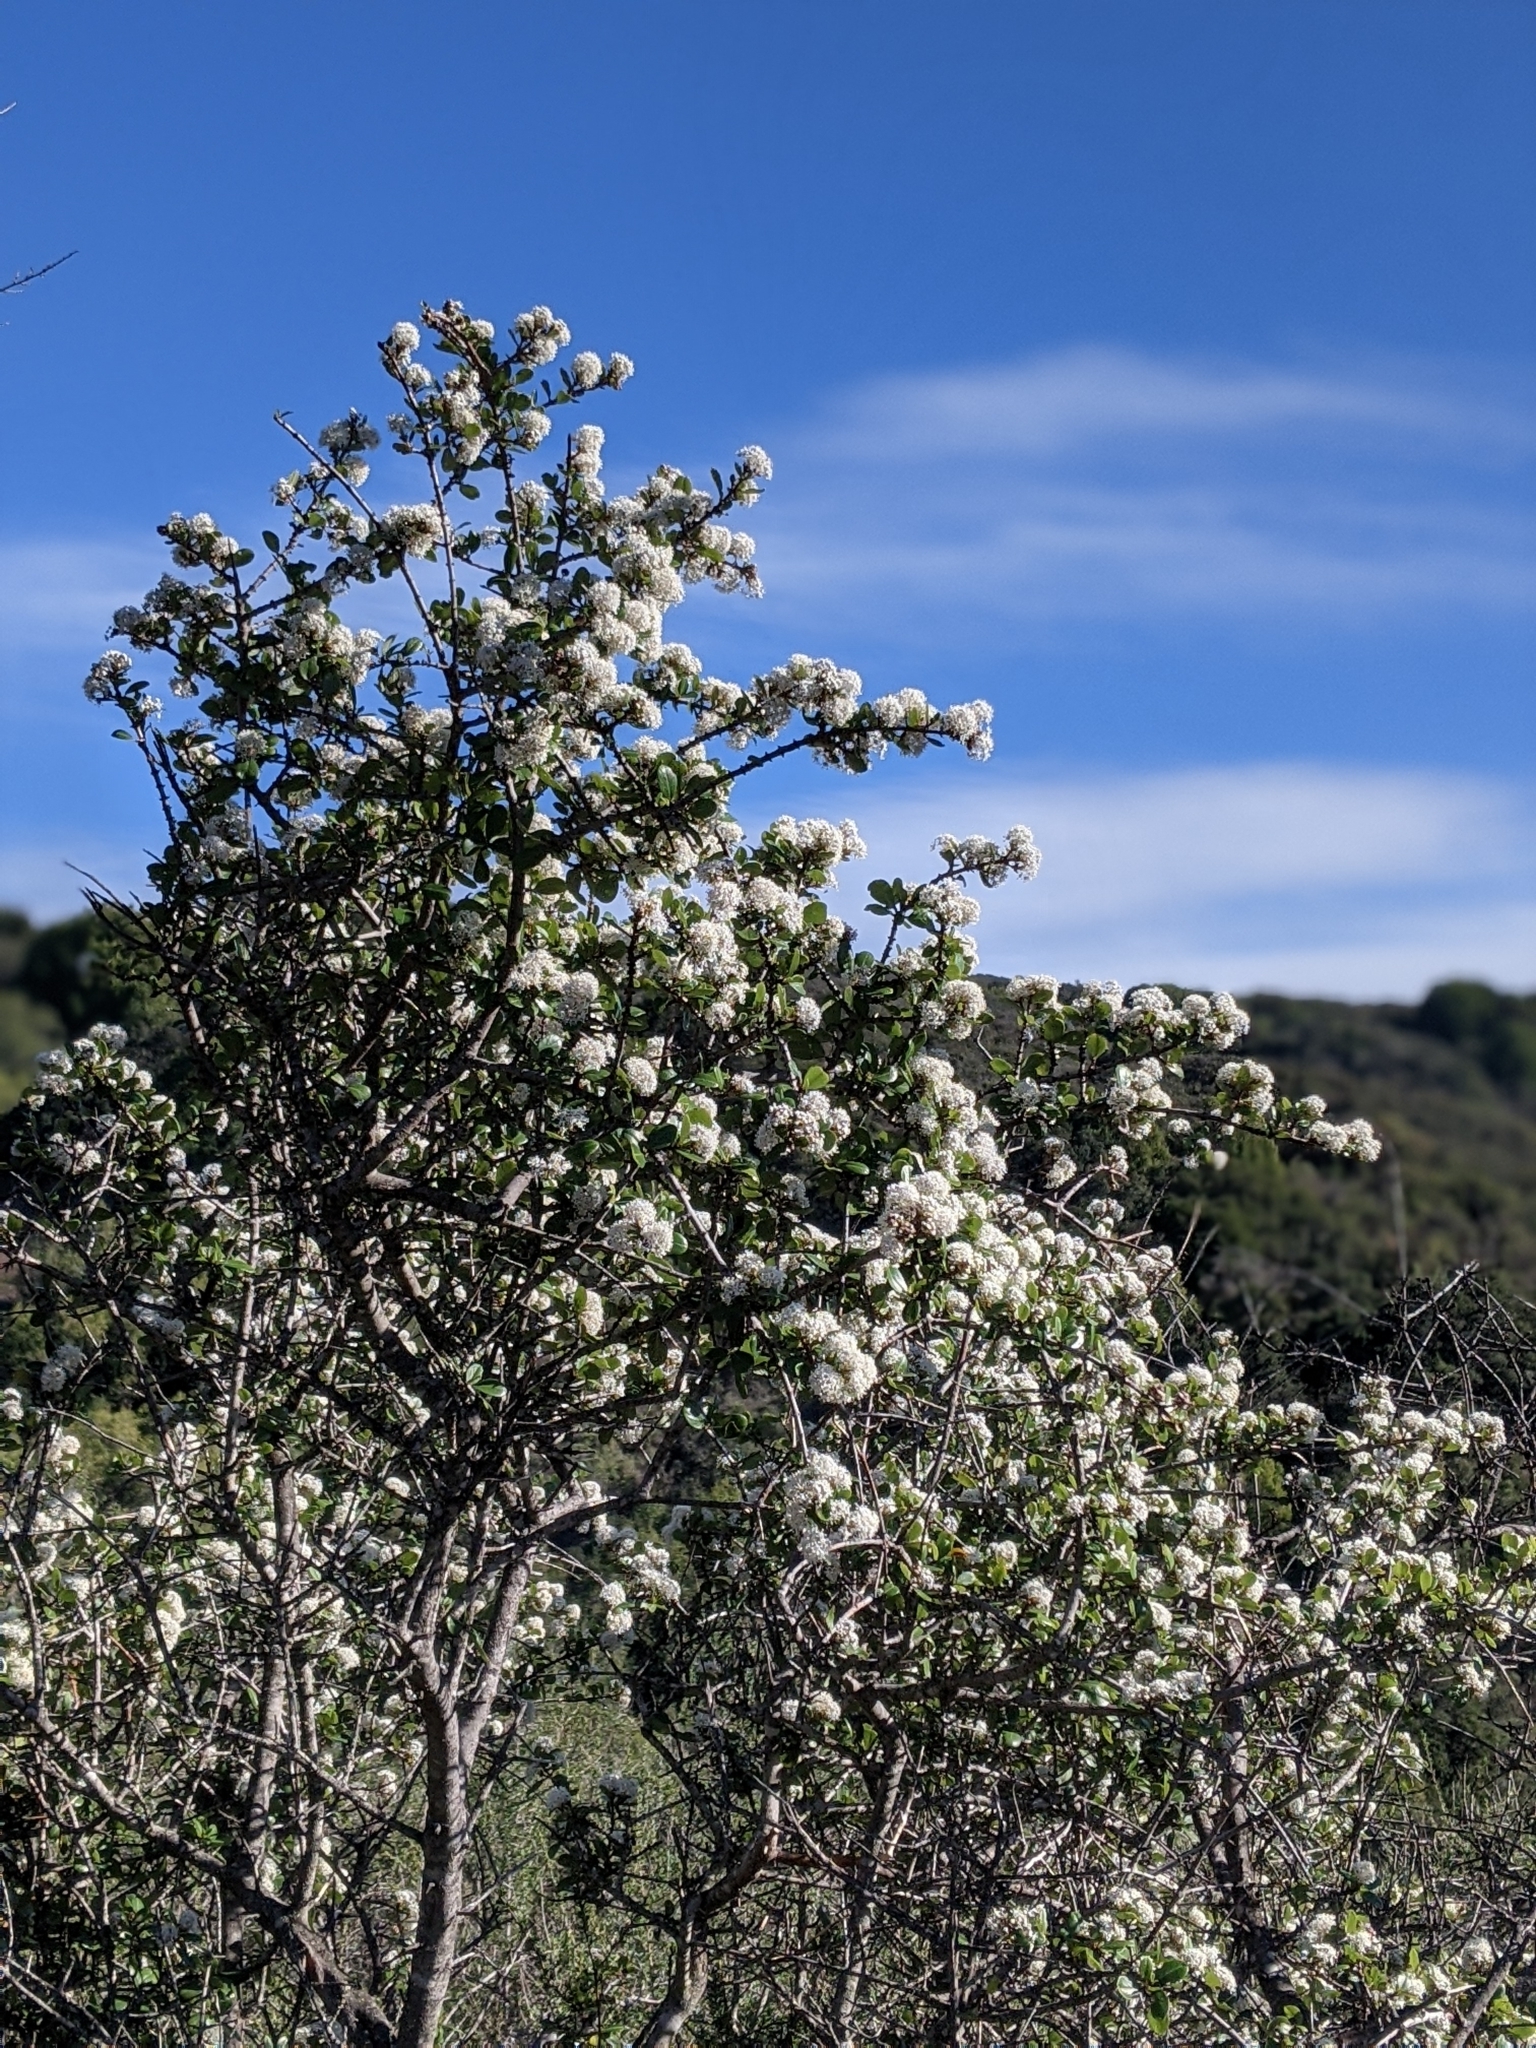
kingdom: Plantae
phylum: Tracheophyta
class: Magnoliopsida
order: Rosales
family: Rhamnaceae
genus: Ceanothus
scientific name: Ceanothus cuneatus
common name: Cuneate ceanothus
